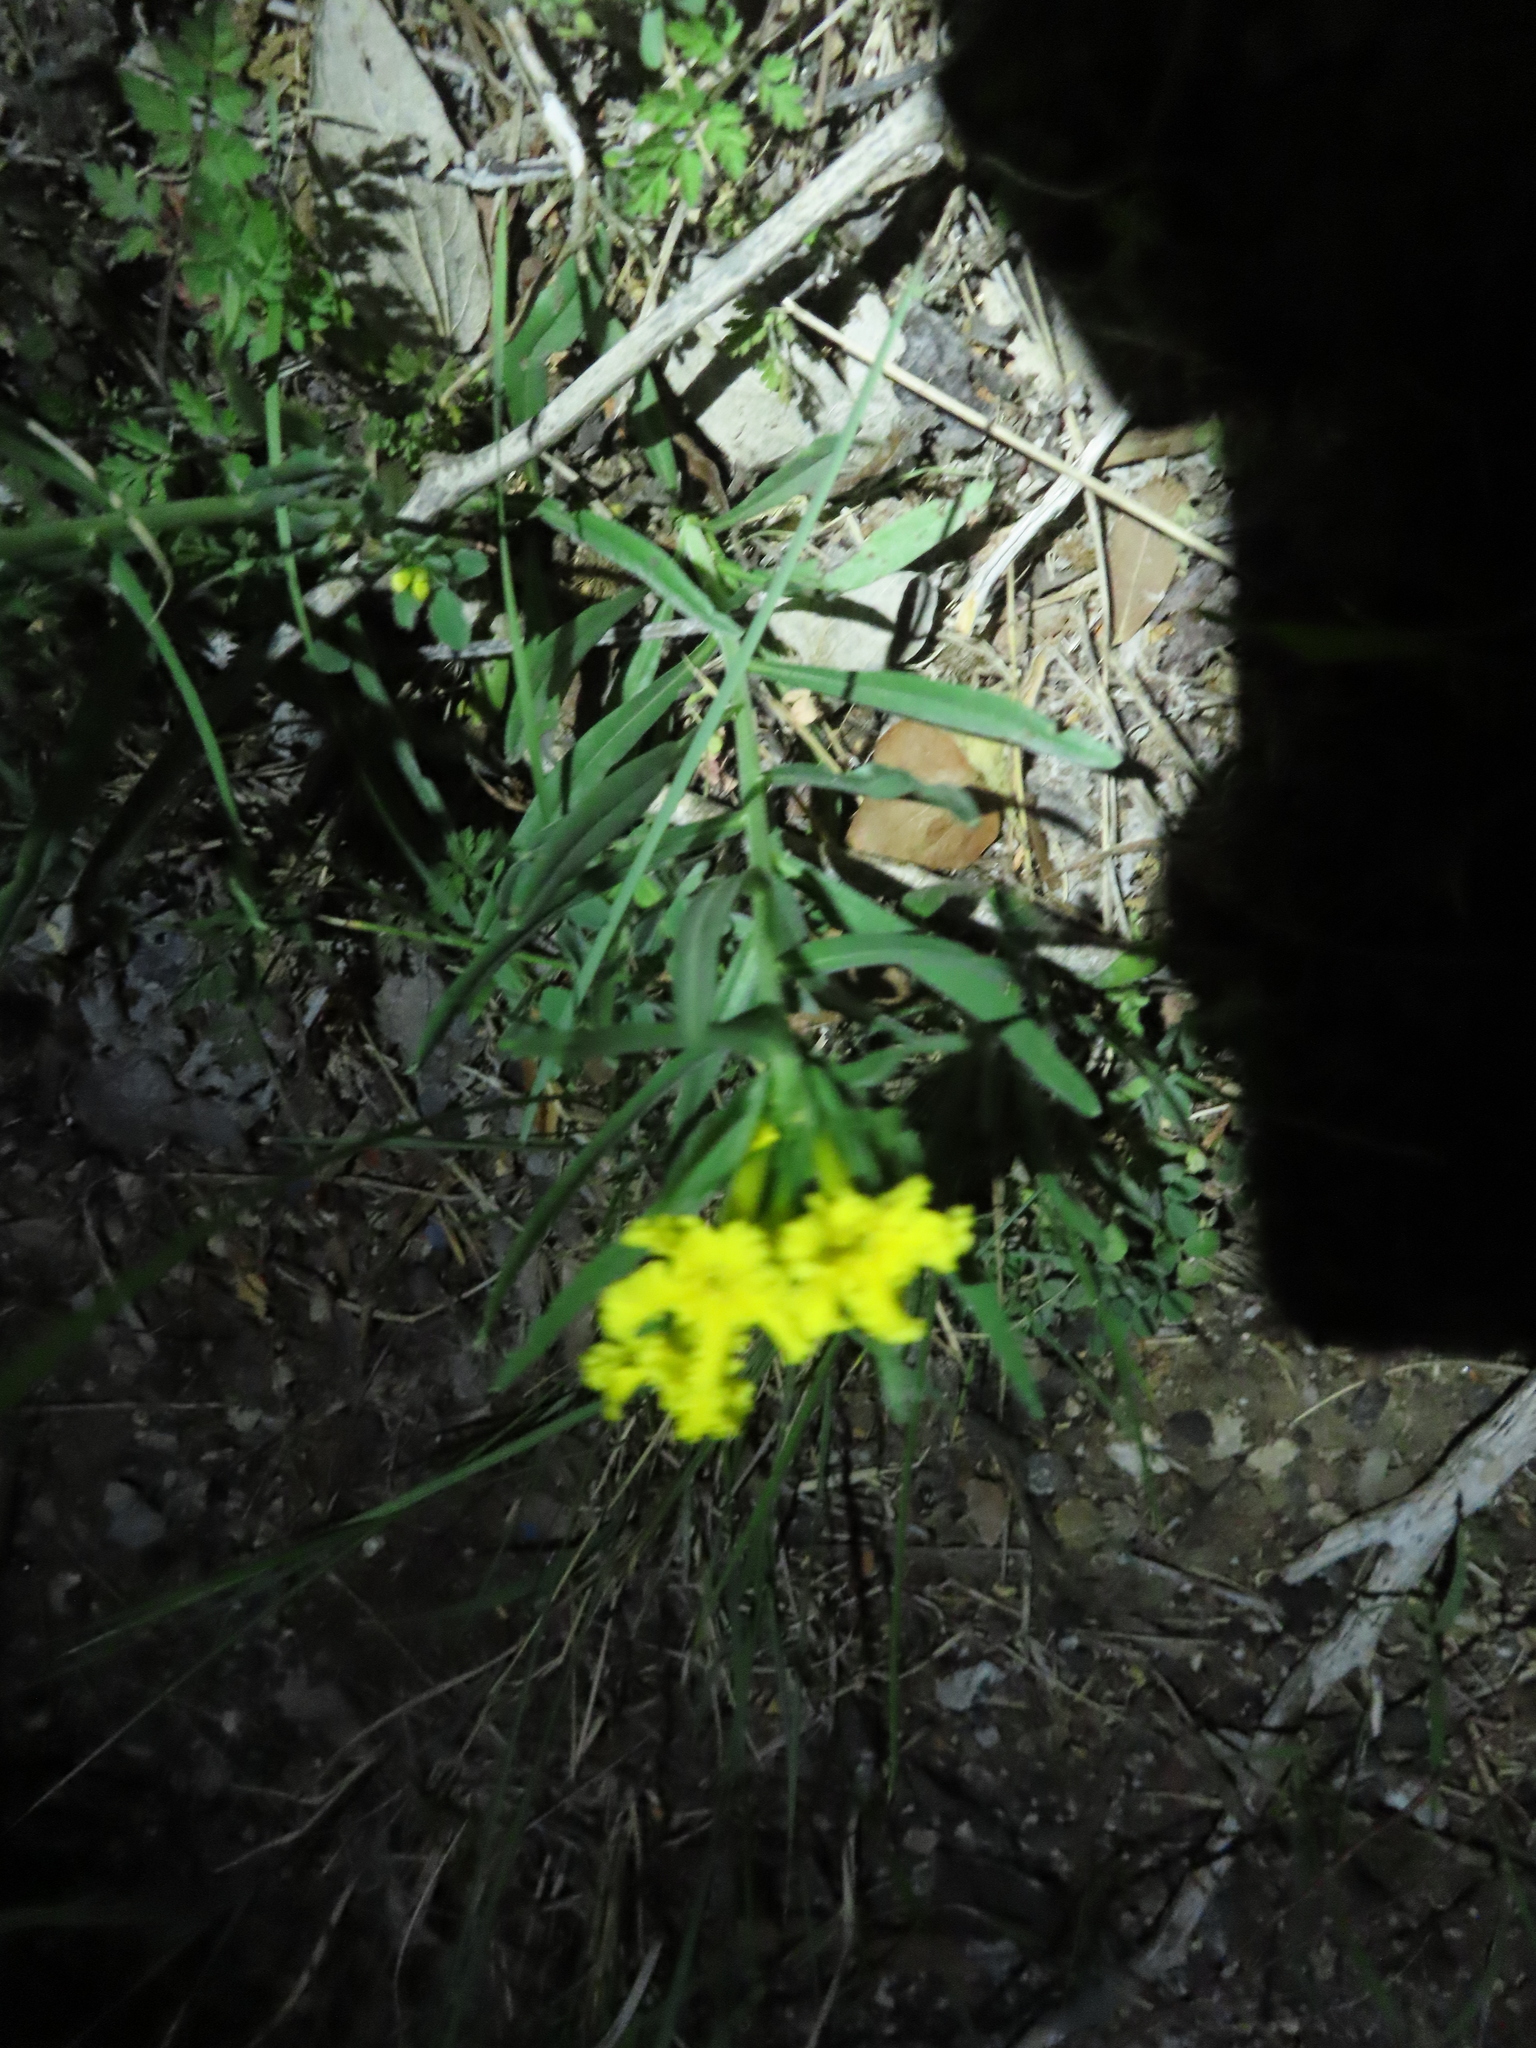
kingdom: Plantae
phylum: Tracheophyta
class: Magnoliopsida
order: Boraginales
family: Boraginaceae
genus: Lithospermum
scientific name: Lithospermum incisum
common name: Fringed gromwell
